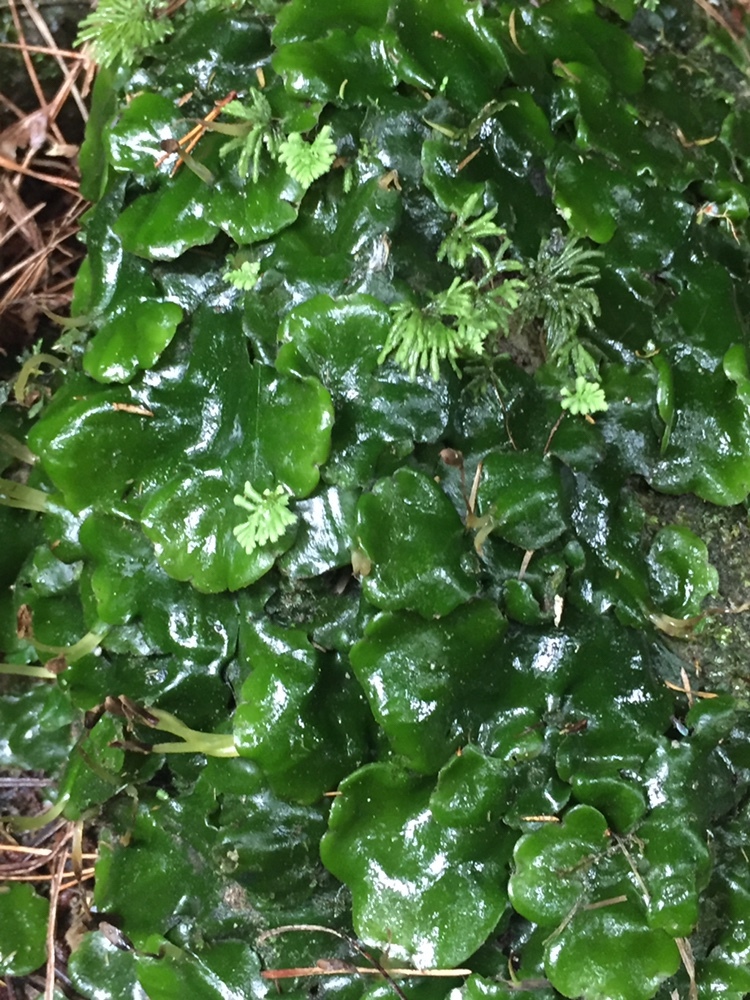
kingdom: Plantae
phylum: Marchantiophyta
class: Marchantiopsida
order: Marchantiales
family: Monocleaceae
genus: Monoclea
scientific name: Monoclea forsteri
